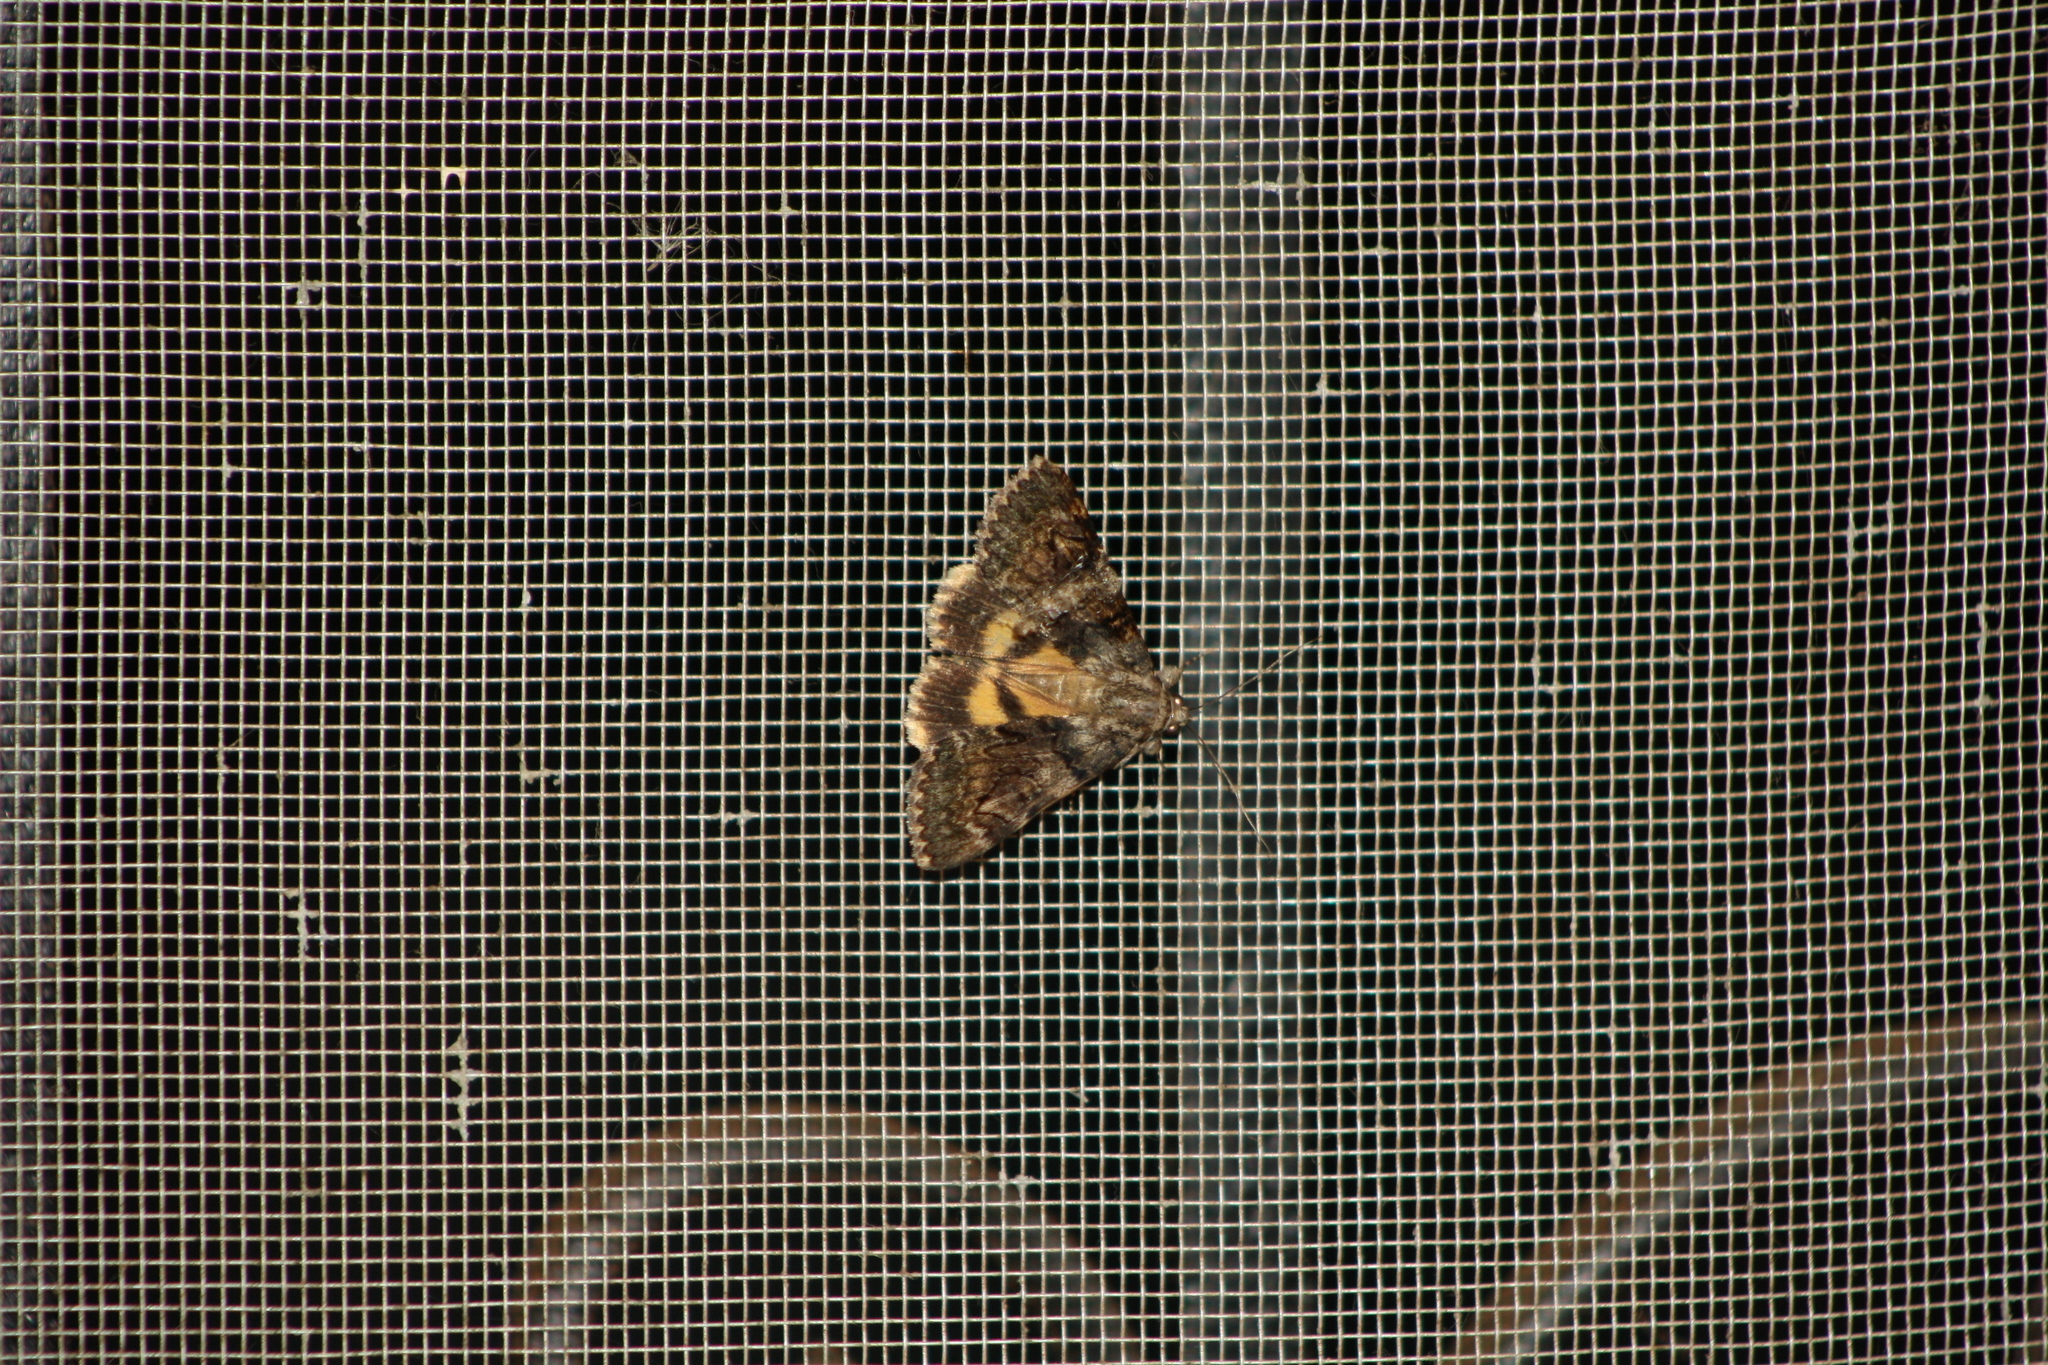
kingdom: Animalia
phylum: Arthropoda
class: Insecta
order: Lepidoptera
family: Erebidae
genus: Catocala
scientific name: Catocala nymphagoga
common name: Oak yellow underwing
